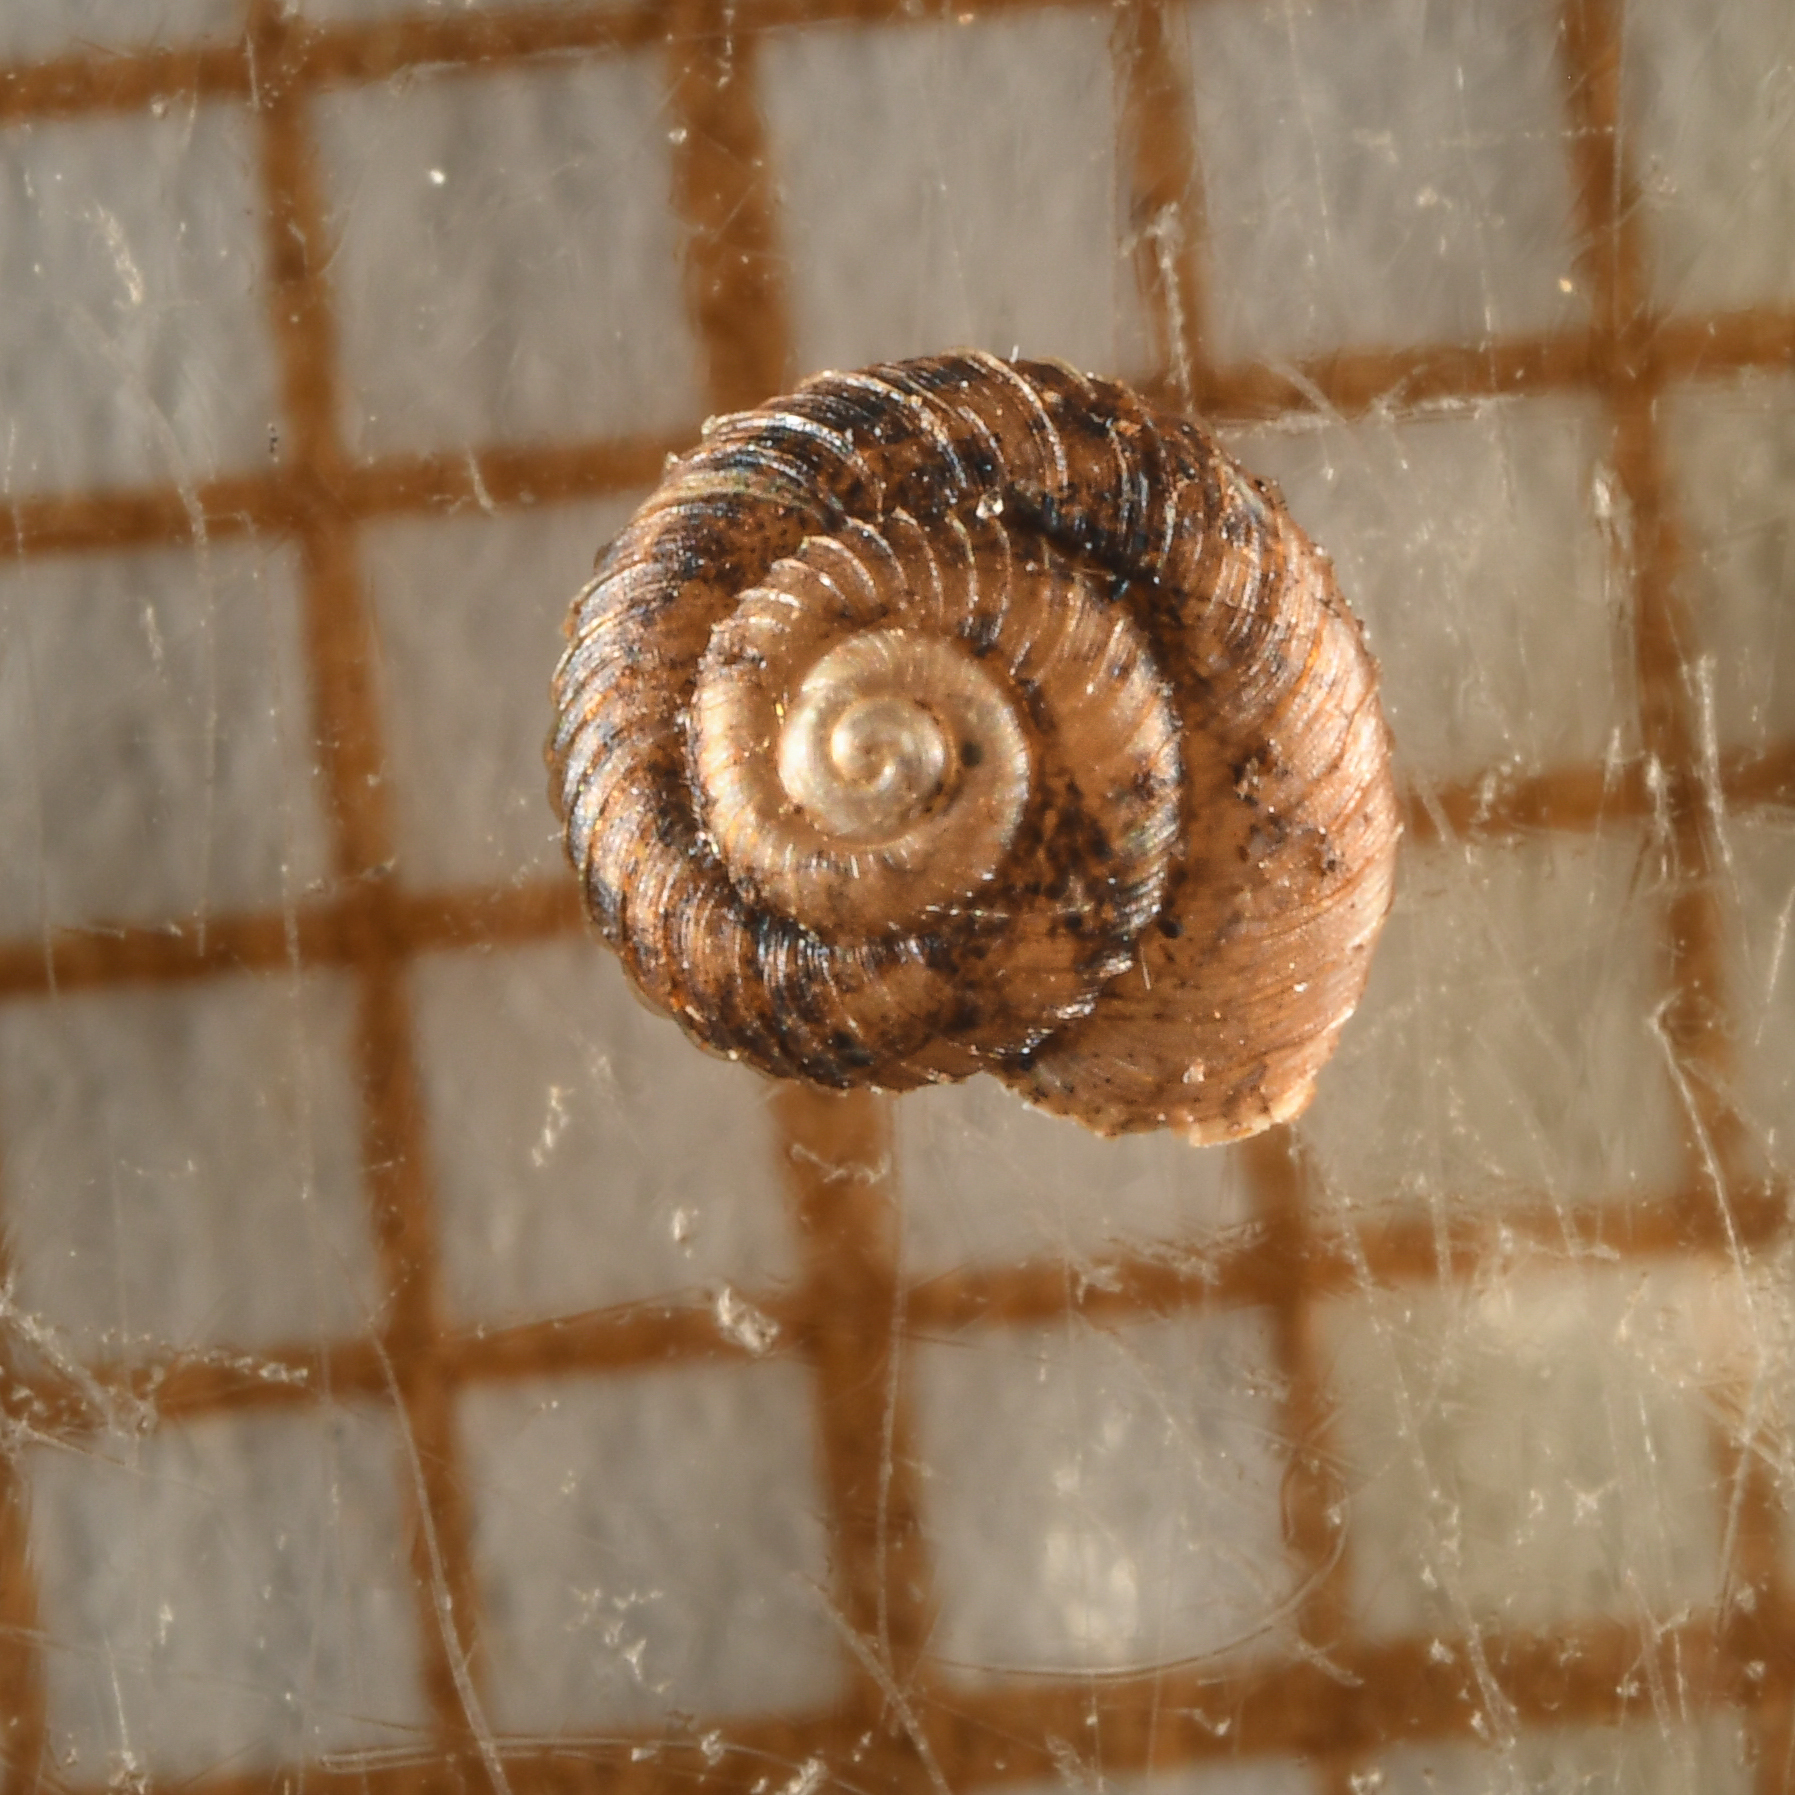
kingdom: Animalia
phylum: Mollusca
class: Gastropoda
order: Stylommatophora
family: Punctidae
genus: Paralaoma
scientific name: Paralaoma servilis
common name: Pinhead spot
